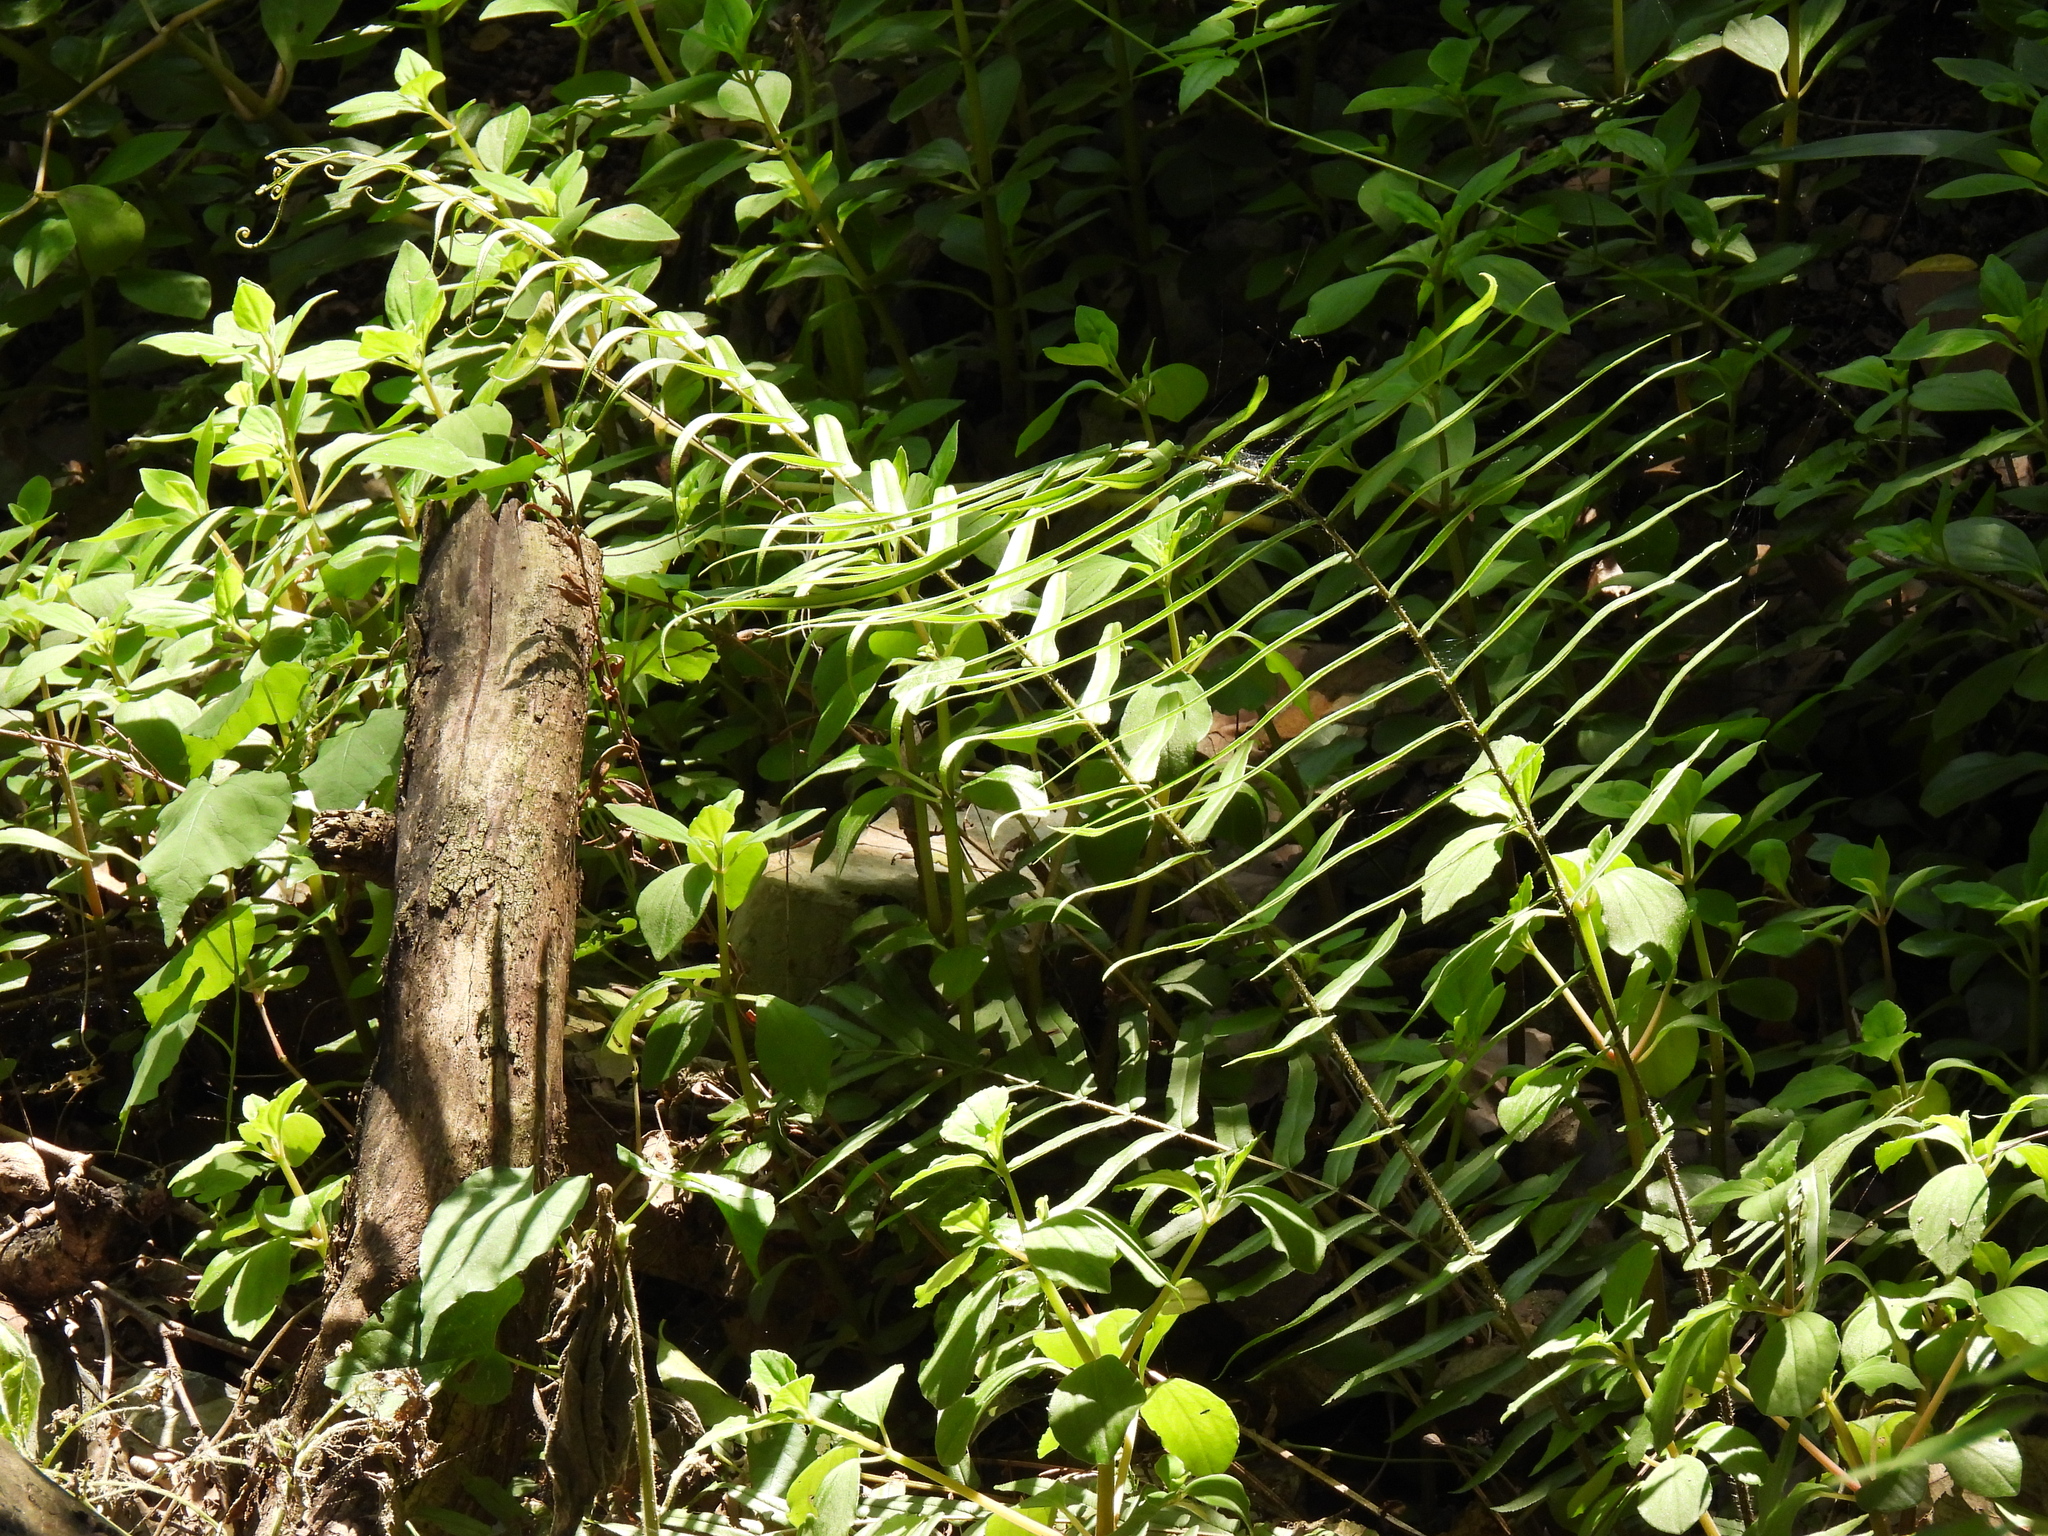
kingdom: Plantae
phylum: Tracheophyta
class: Polypodiopsida
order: Polypodiales
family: Pteridaceae
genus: Pteris
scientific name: Pteris vittata
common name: Ladder brake
